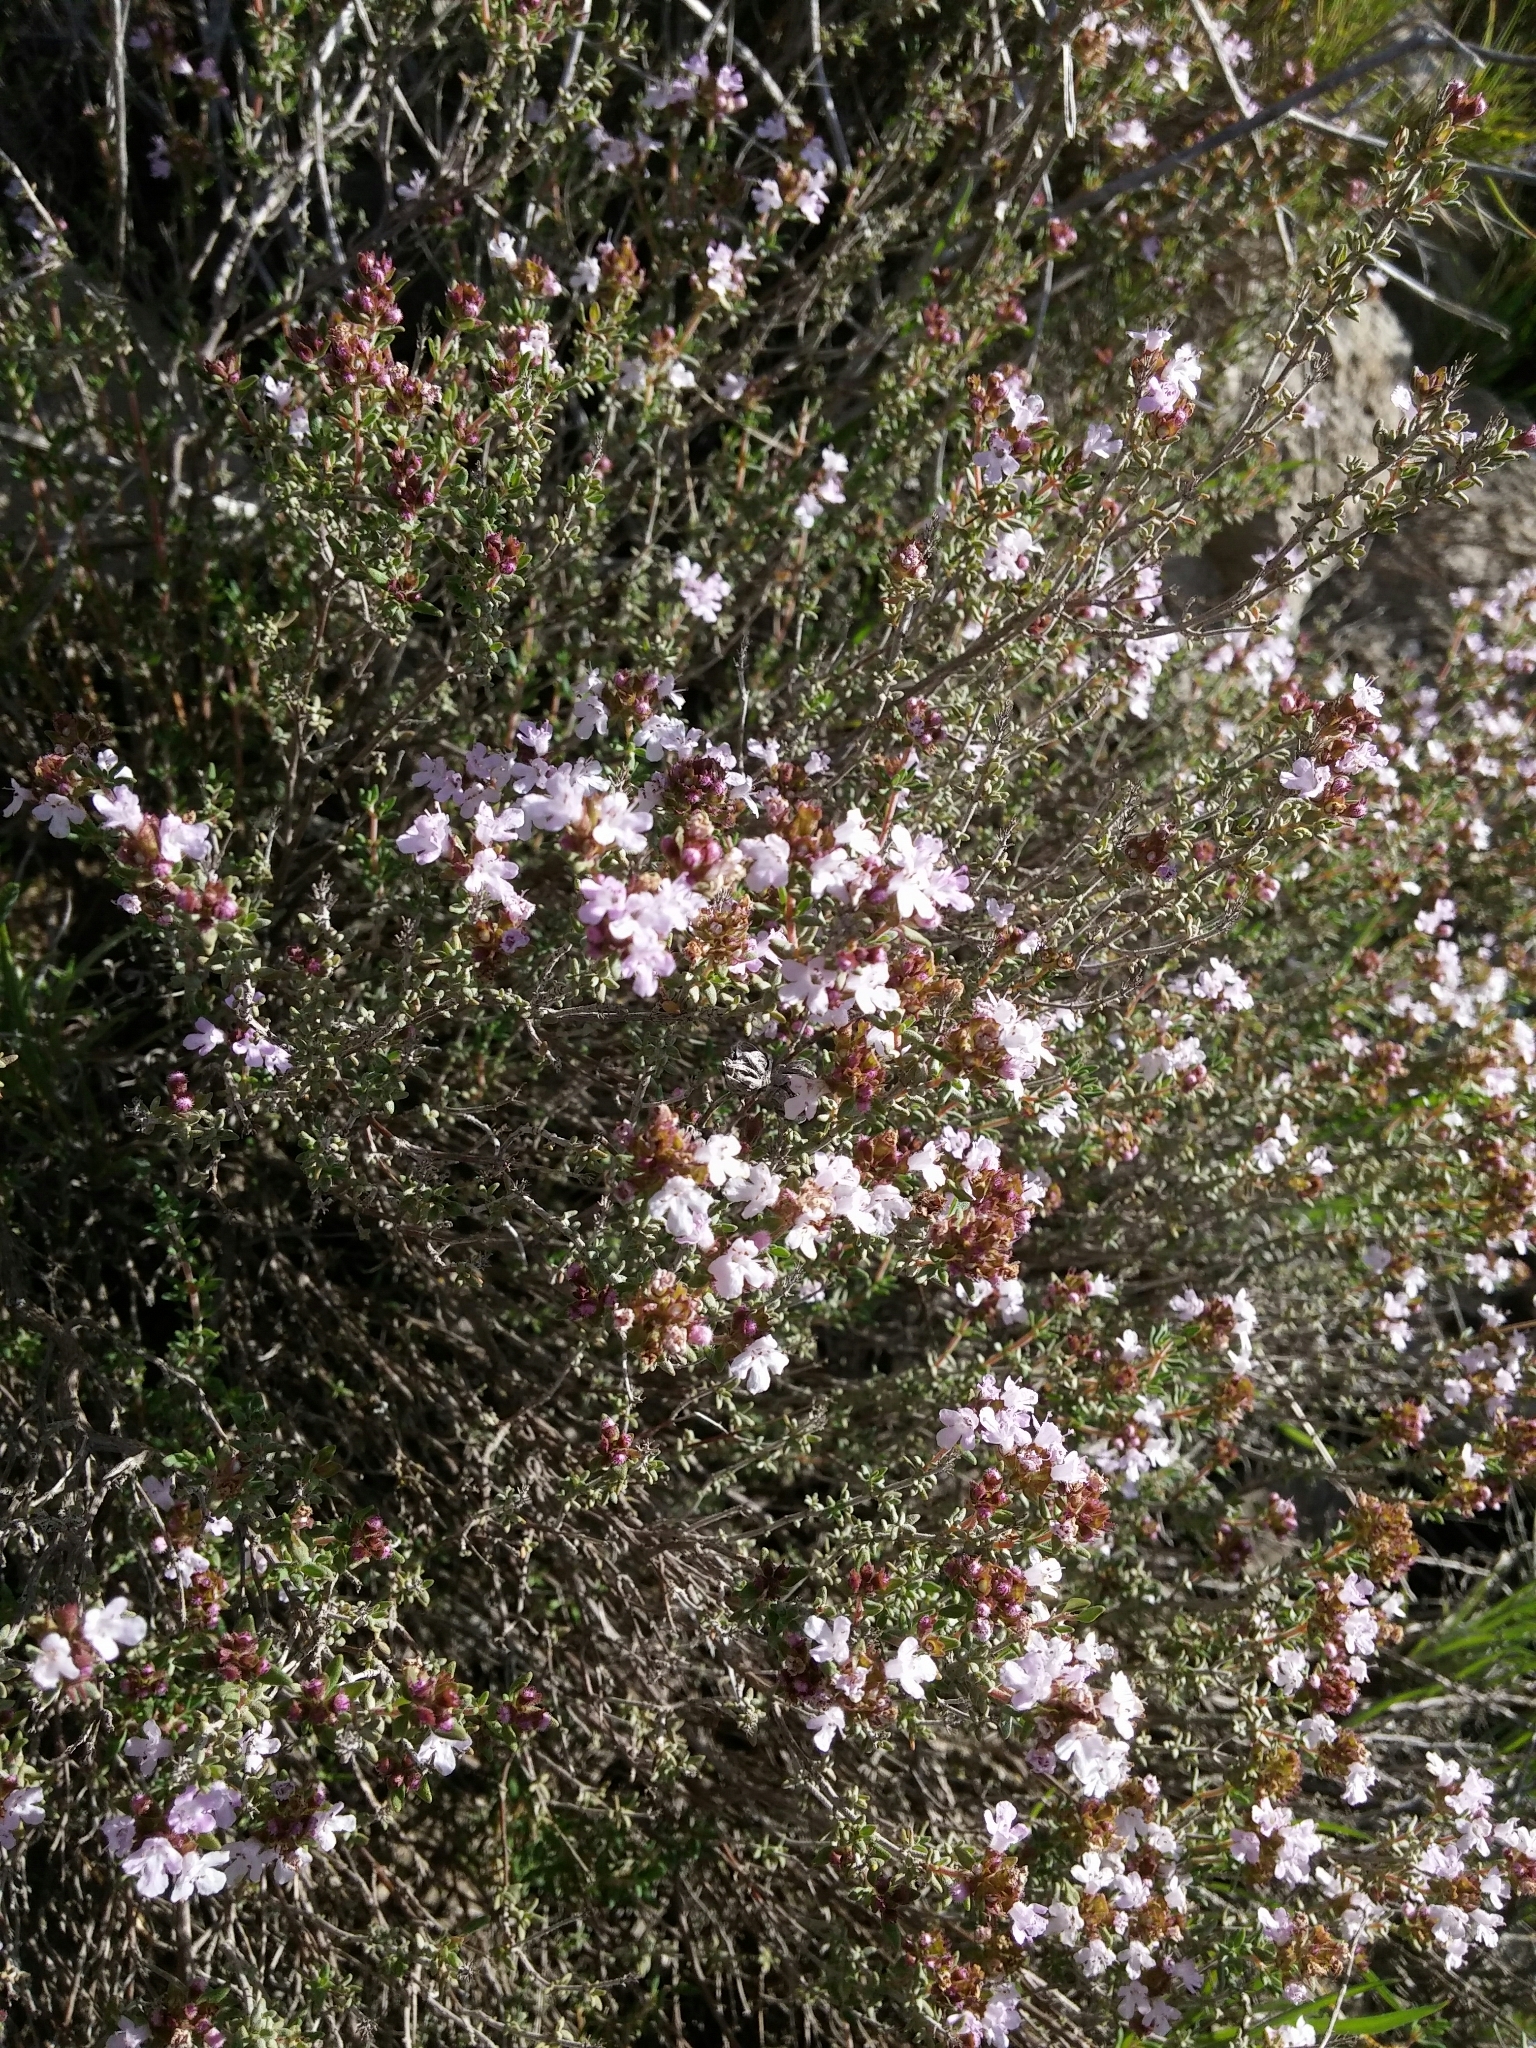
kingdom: Plantae
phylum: Tracheophyta
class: Magnoliopsida
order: Lamiales
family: Lamiaceae
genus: Thymus
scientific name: Thymus vulgaris
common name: Garden thyme
